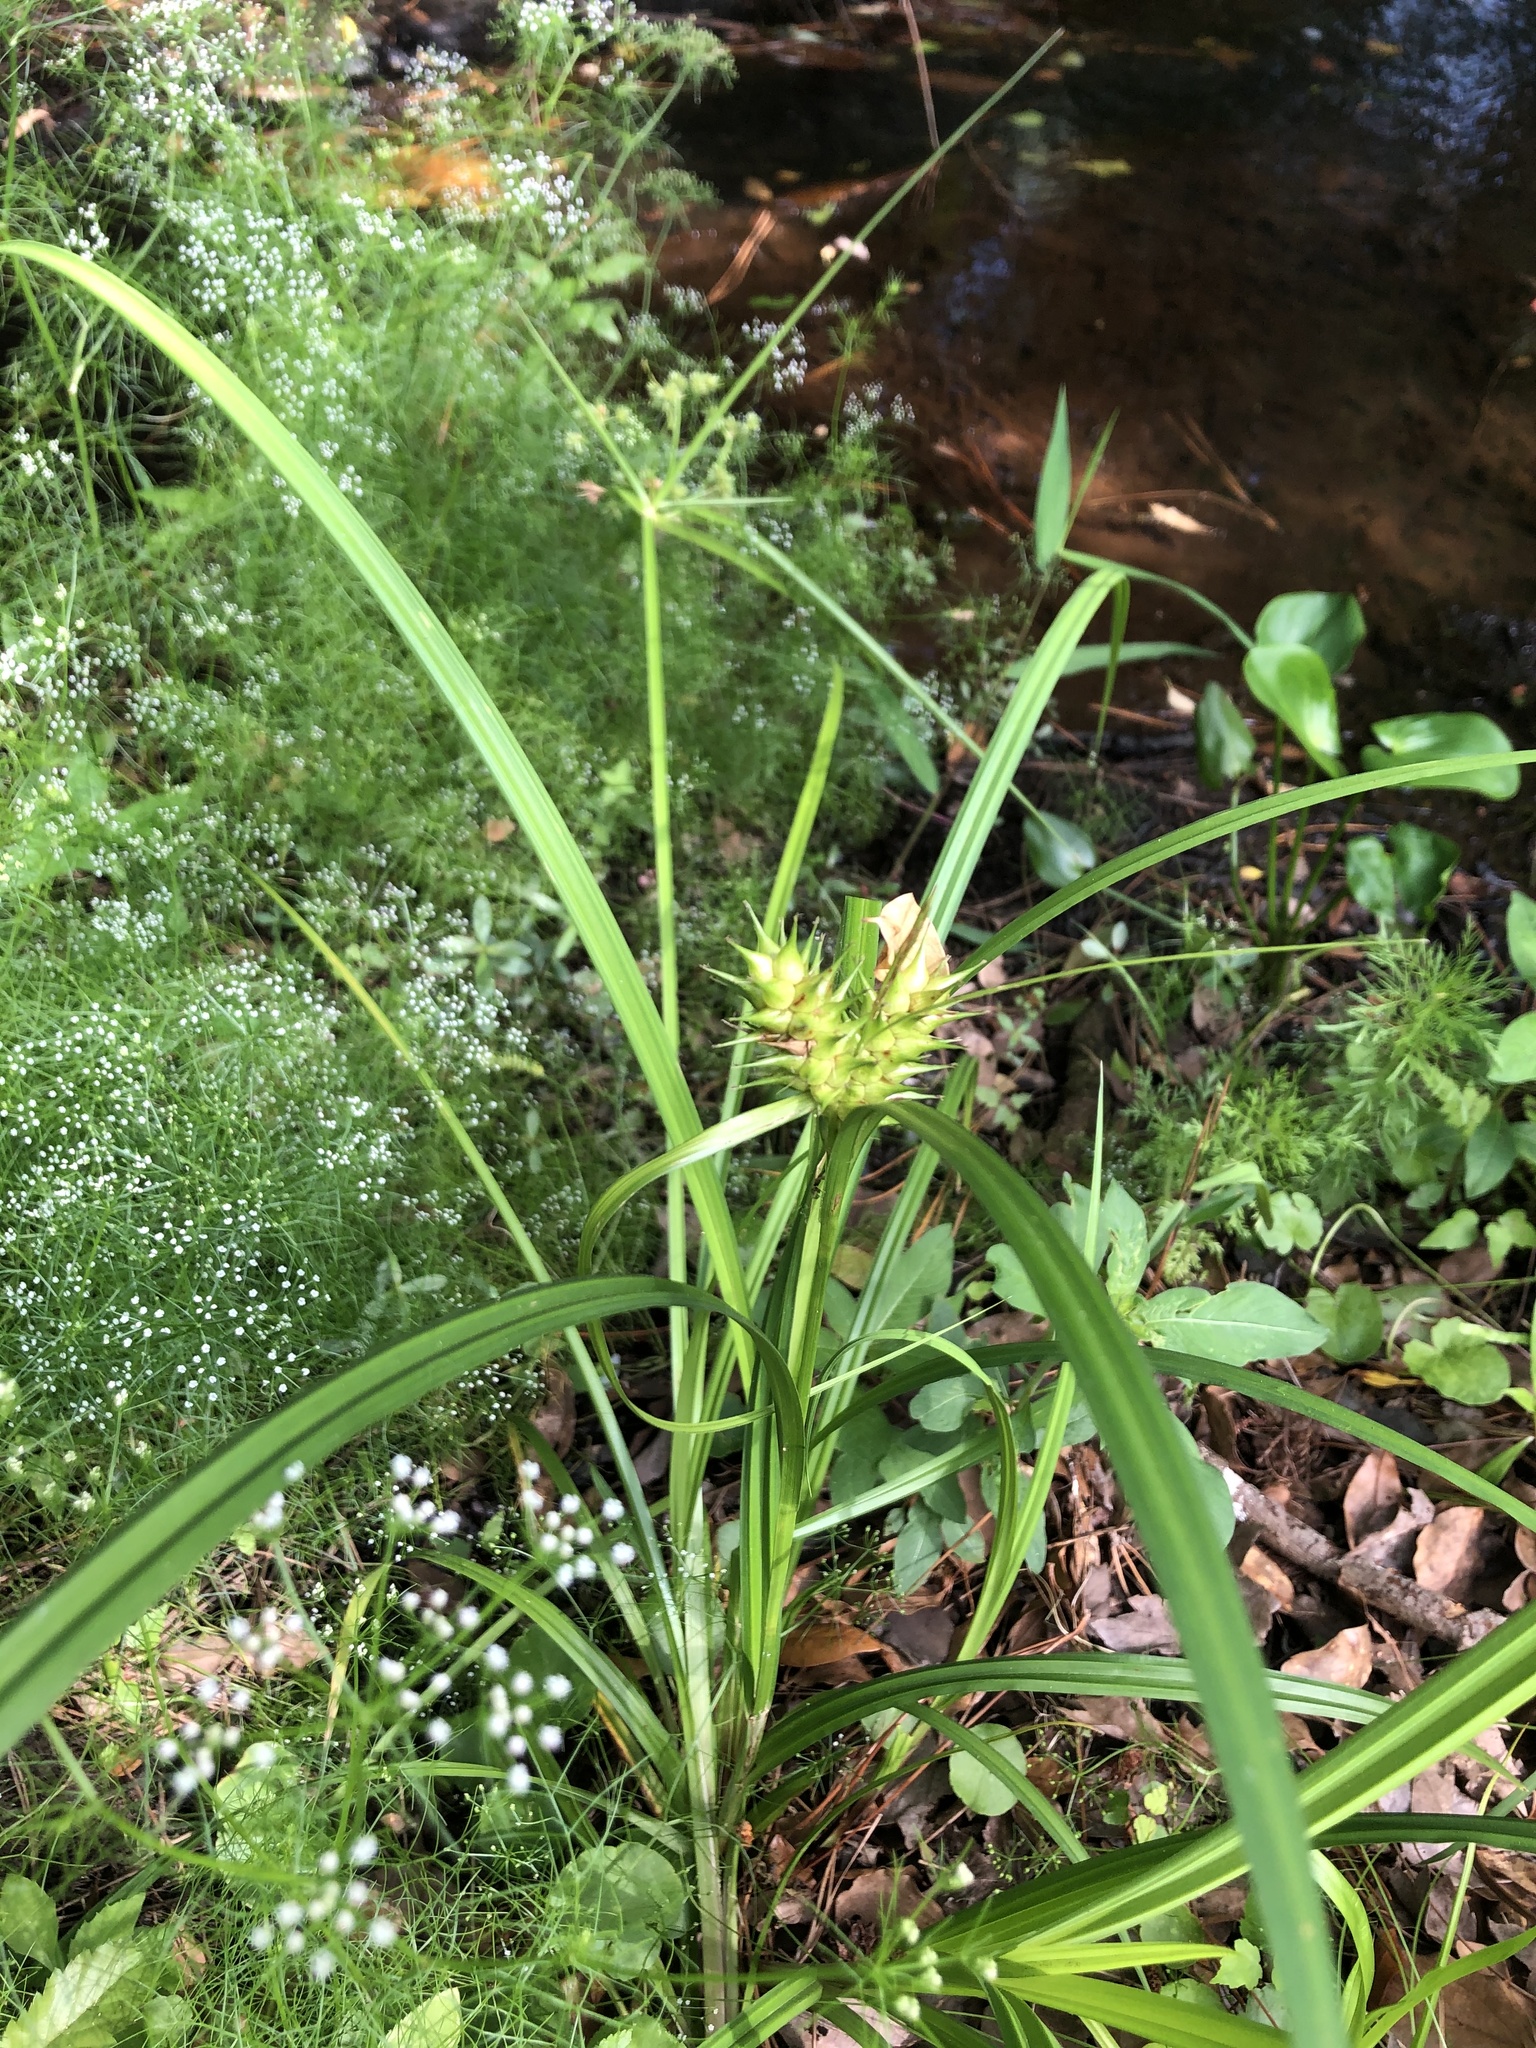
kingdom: Plantae
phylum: Tracheophyta
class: Liliopsida
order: Poales
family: Cyperaceae
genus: Carex
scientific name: Carex lupulina
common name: Hop sedge
